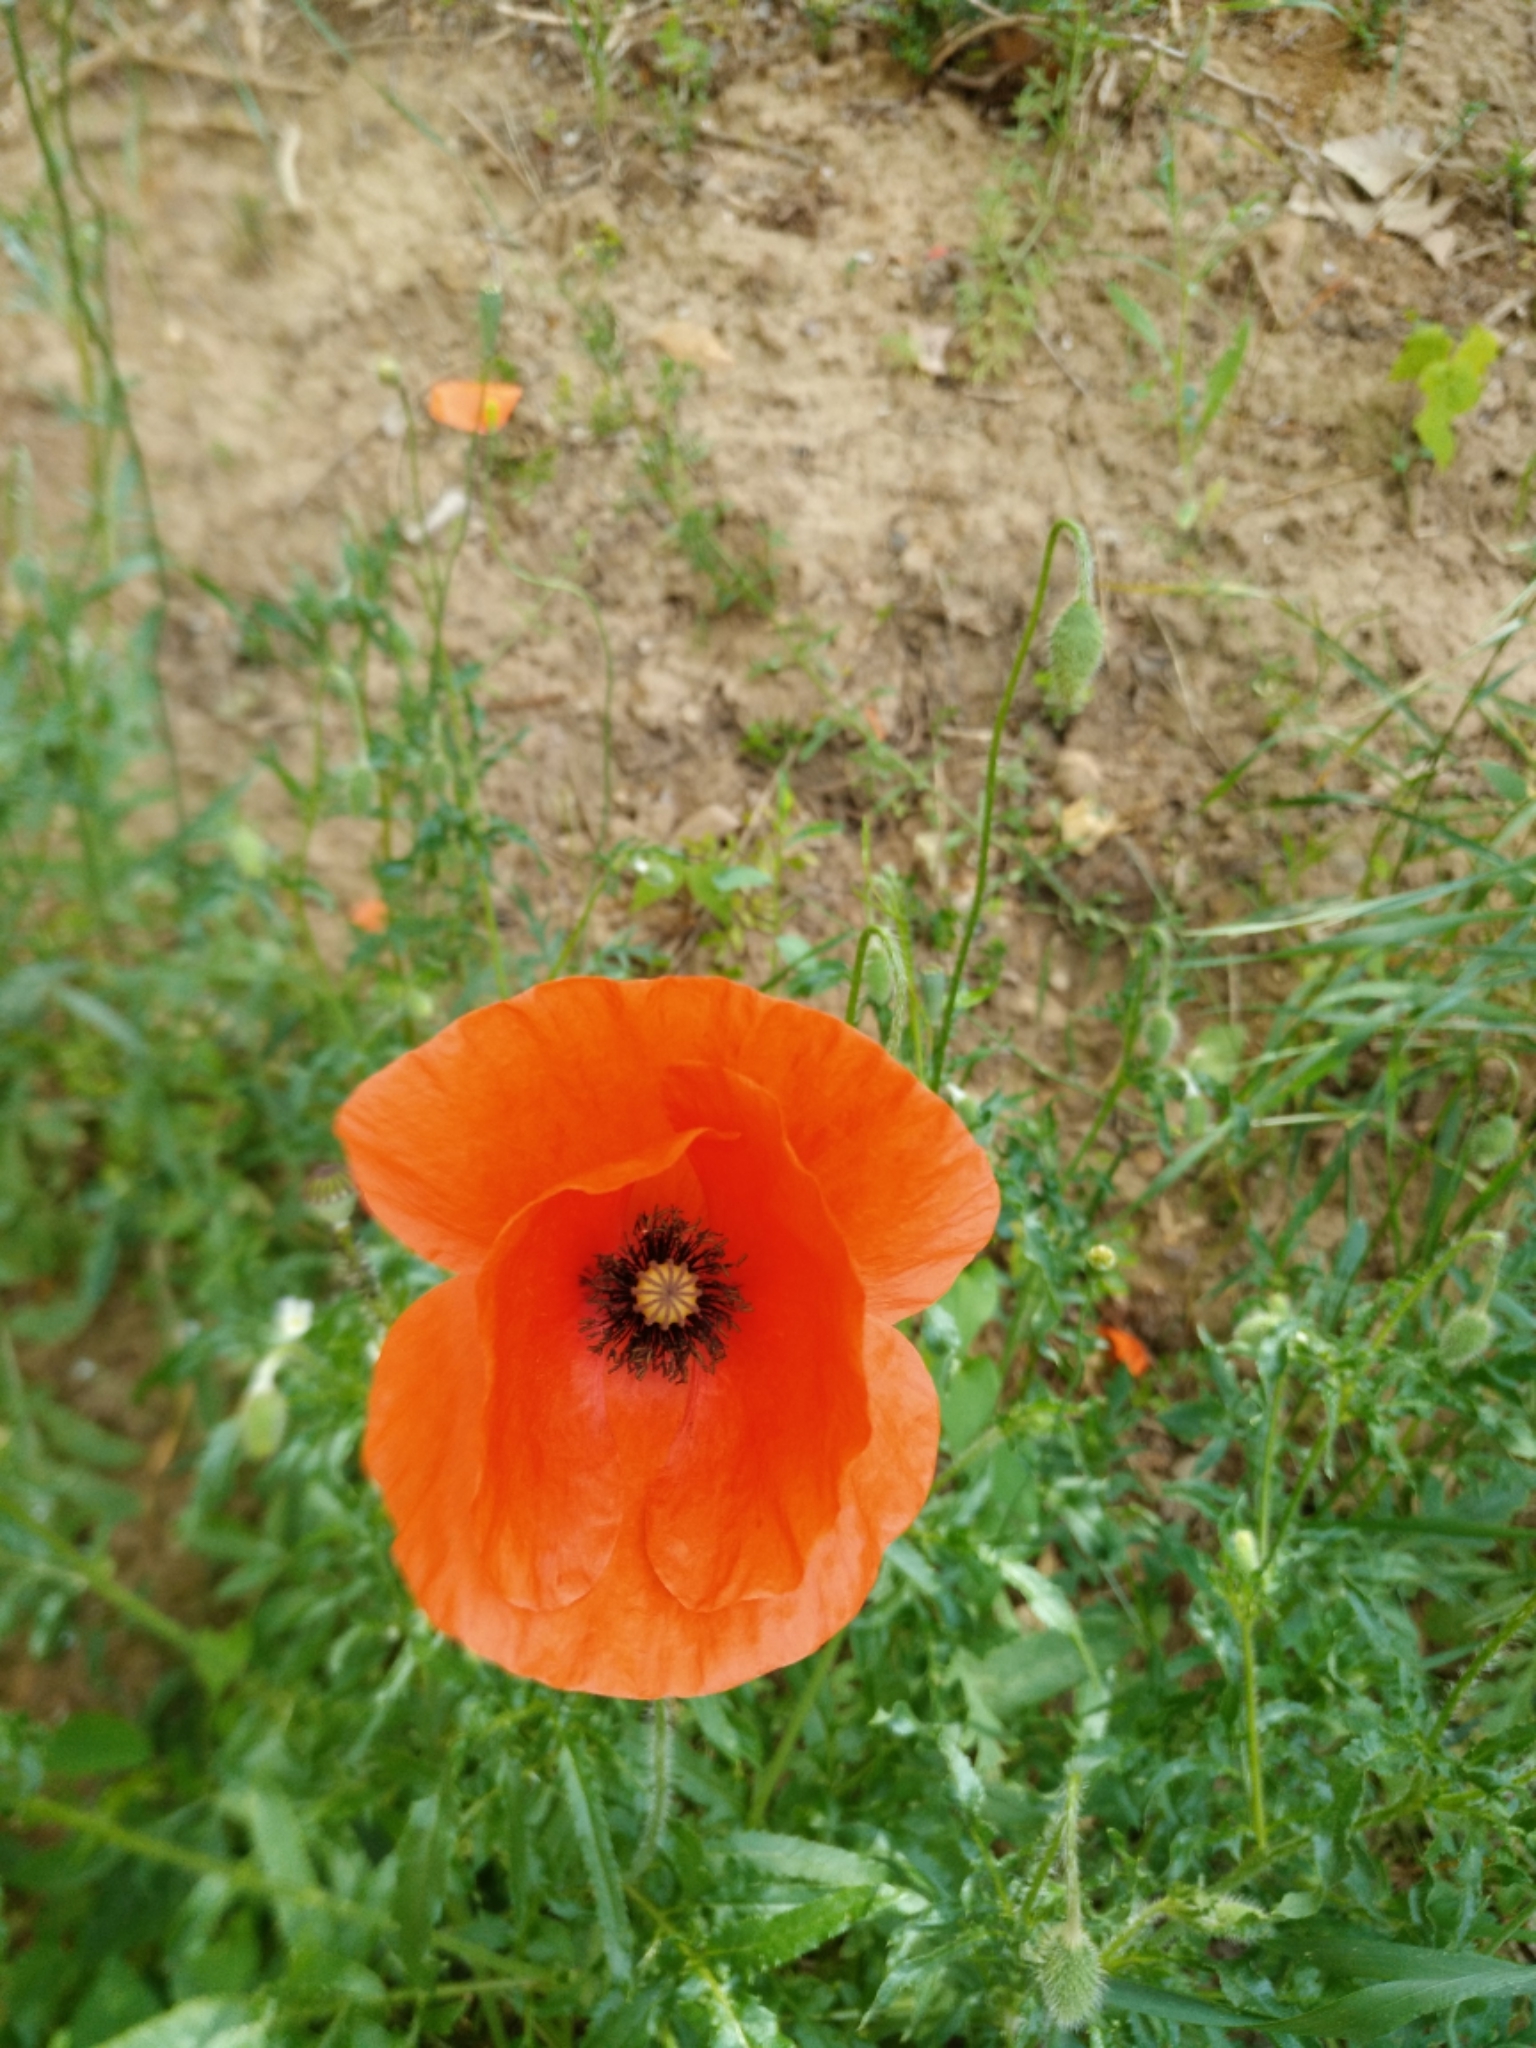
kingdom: Plantae
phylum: Tracheophyta
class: Magnoliopsida
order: Ranunculales
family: Papaveraceae
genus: Papaver
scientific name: Papaver rhoeas
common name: Corn poppy
